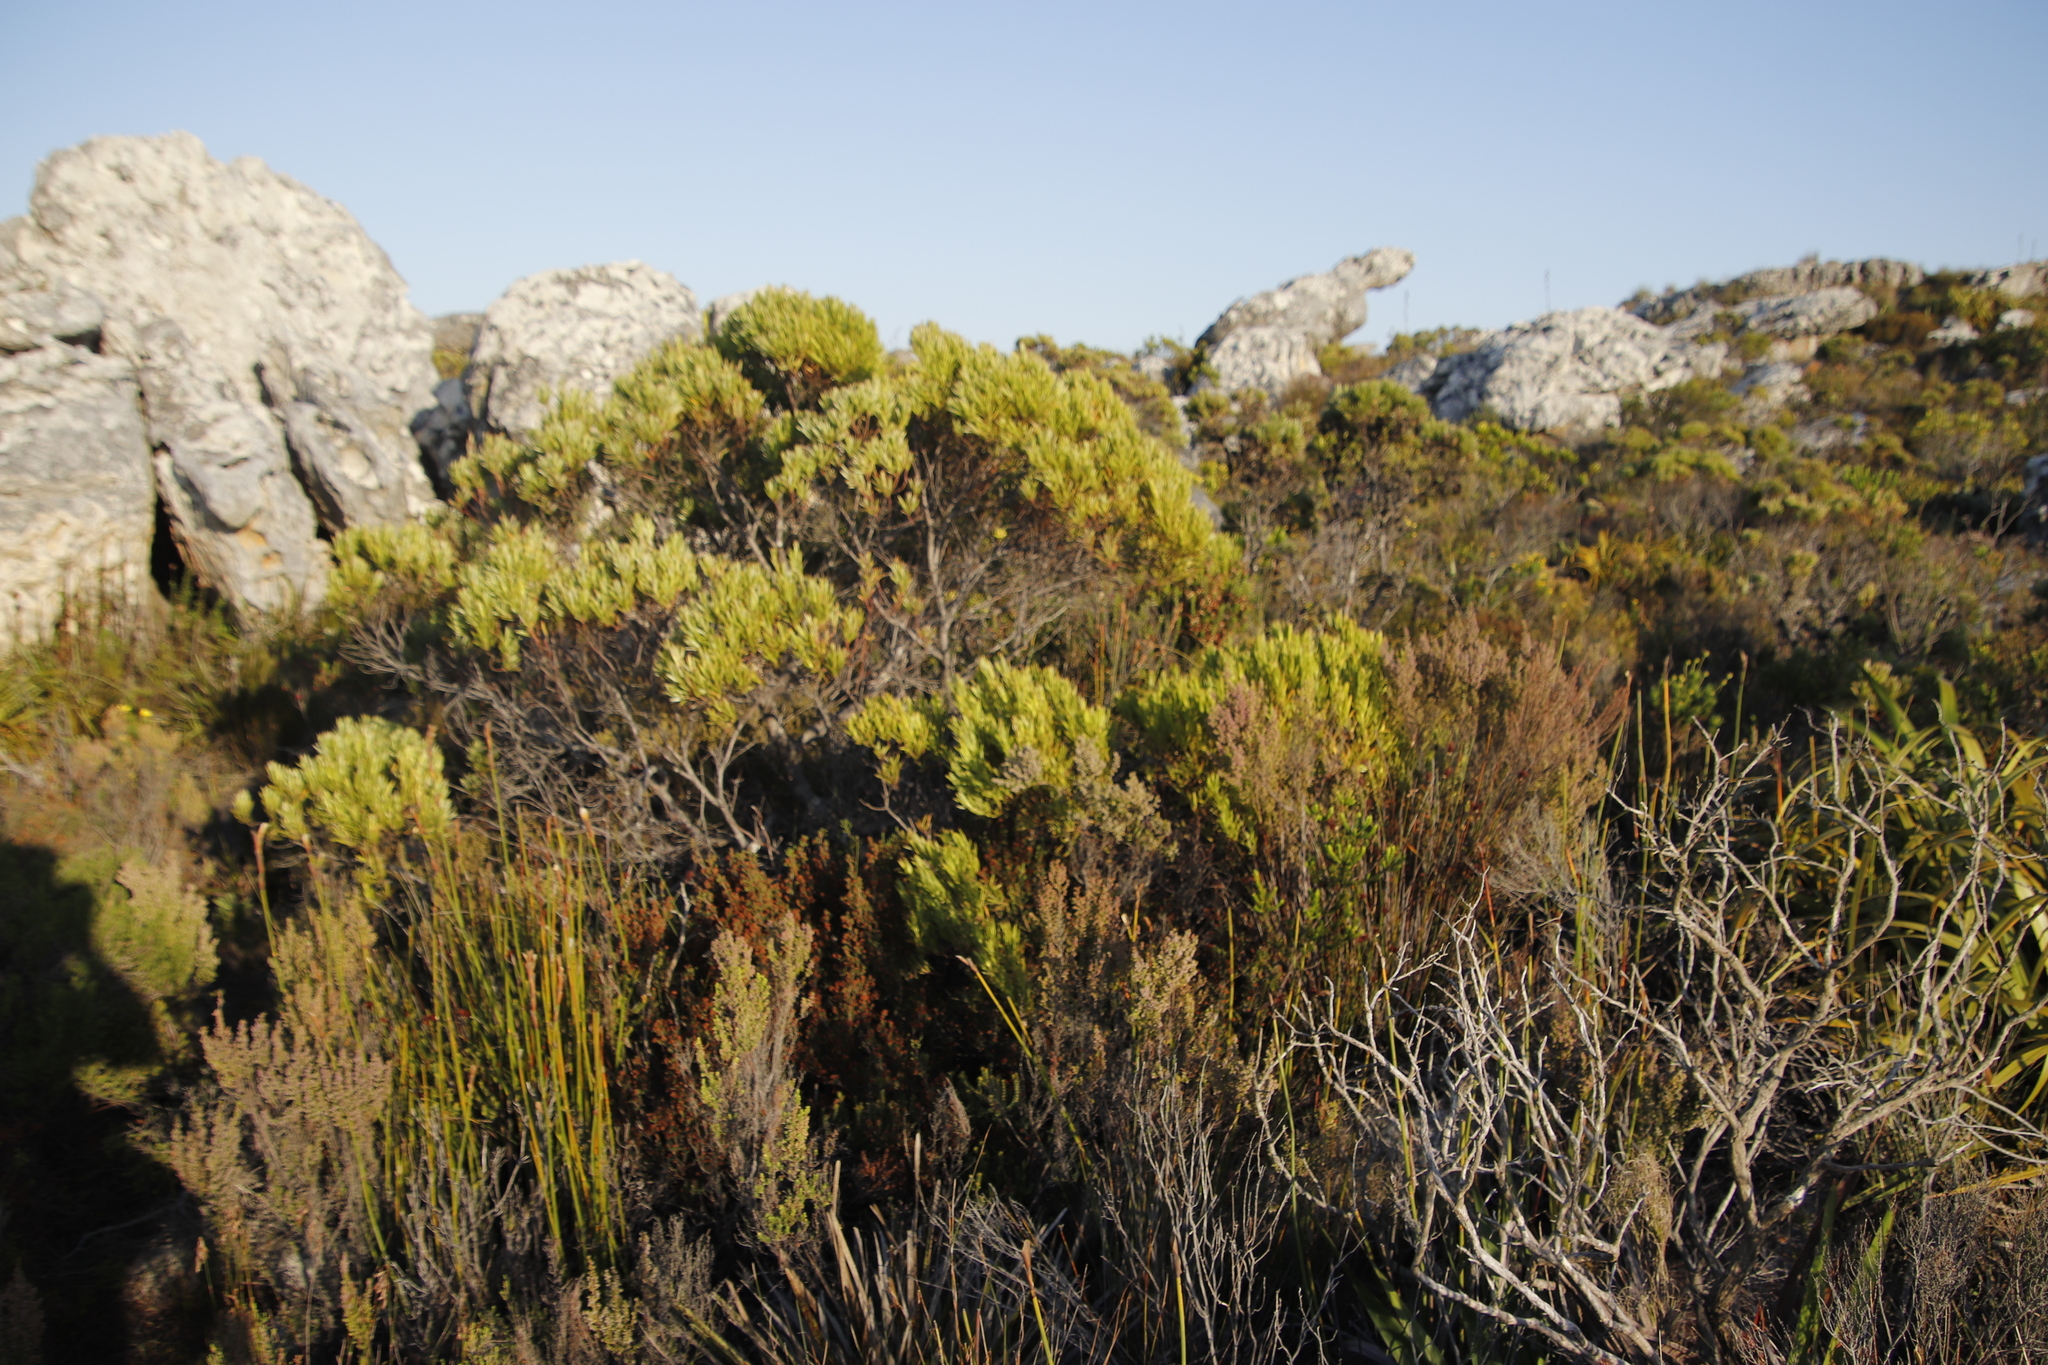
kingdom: Plantae
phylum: Tracheophyta
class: Magnoliopsida
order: Proteales
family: Proteaceae
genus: Leucadendron
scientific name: Leucadendron xanthoconus
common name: Sickle-leaf conebush
